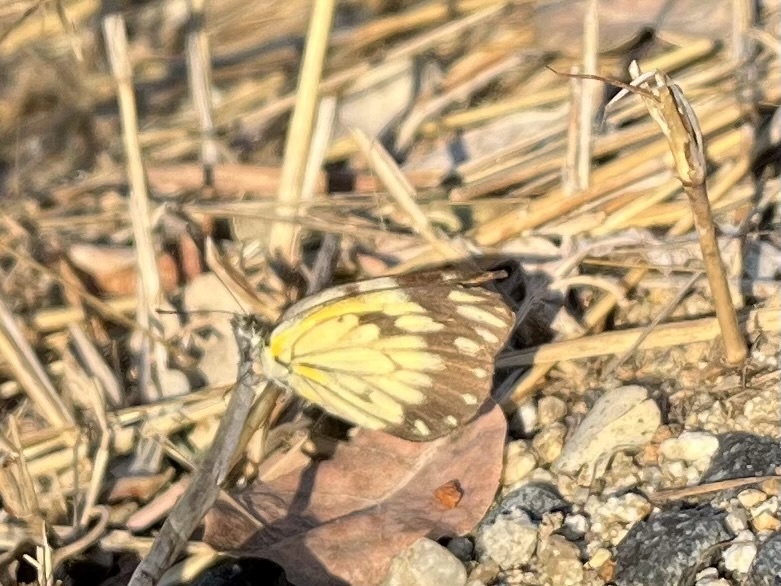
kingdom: Animalia
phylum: Arthropoda
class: Insecta
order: Lepidoptera
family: Pieridae
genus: Belenois
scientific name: Belenois creona
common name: African caper white
